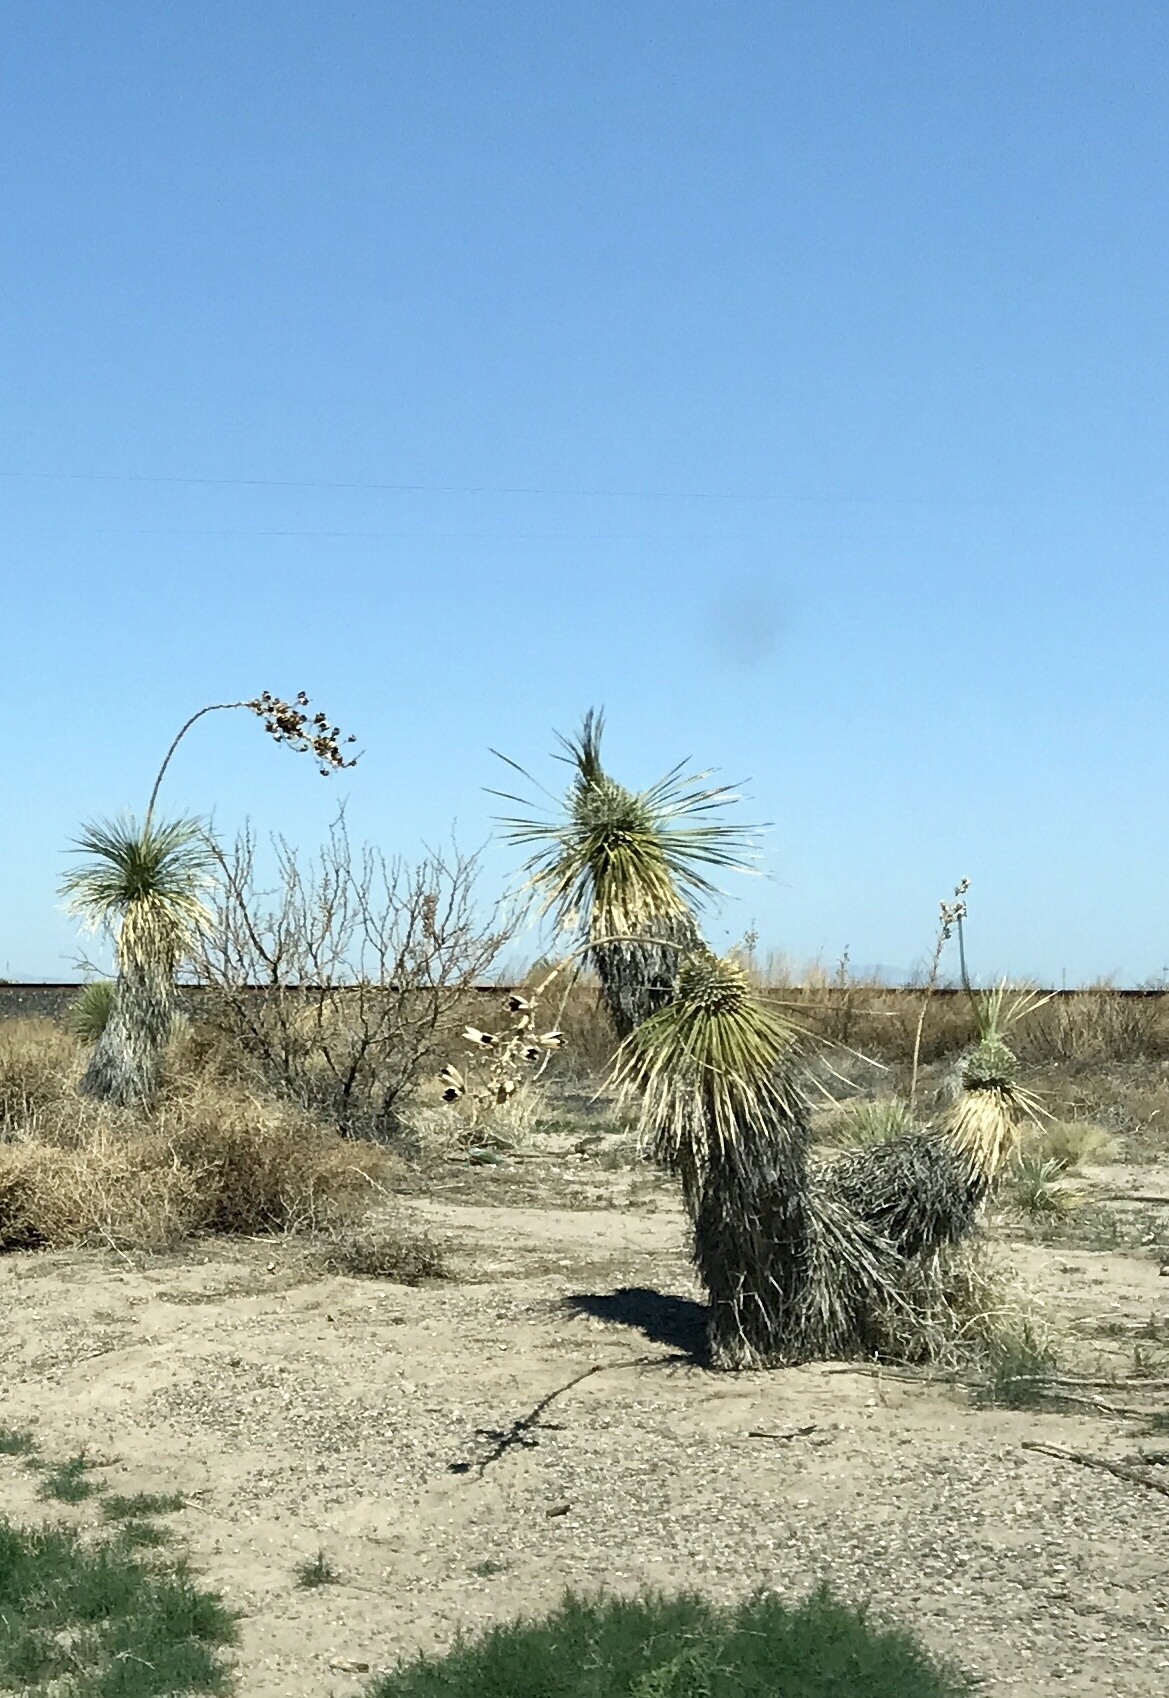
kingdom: Plantae
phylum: Tracheophyta
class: Liliopsida
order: Asparagales
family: Asparagaceae
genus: Yucca
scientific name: Yucca elata
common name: Palmella
